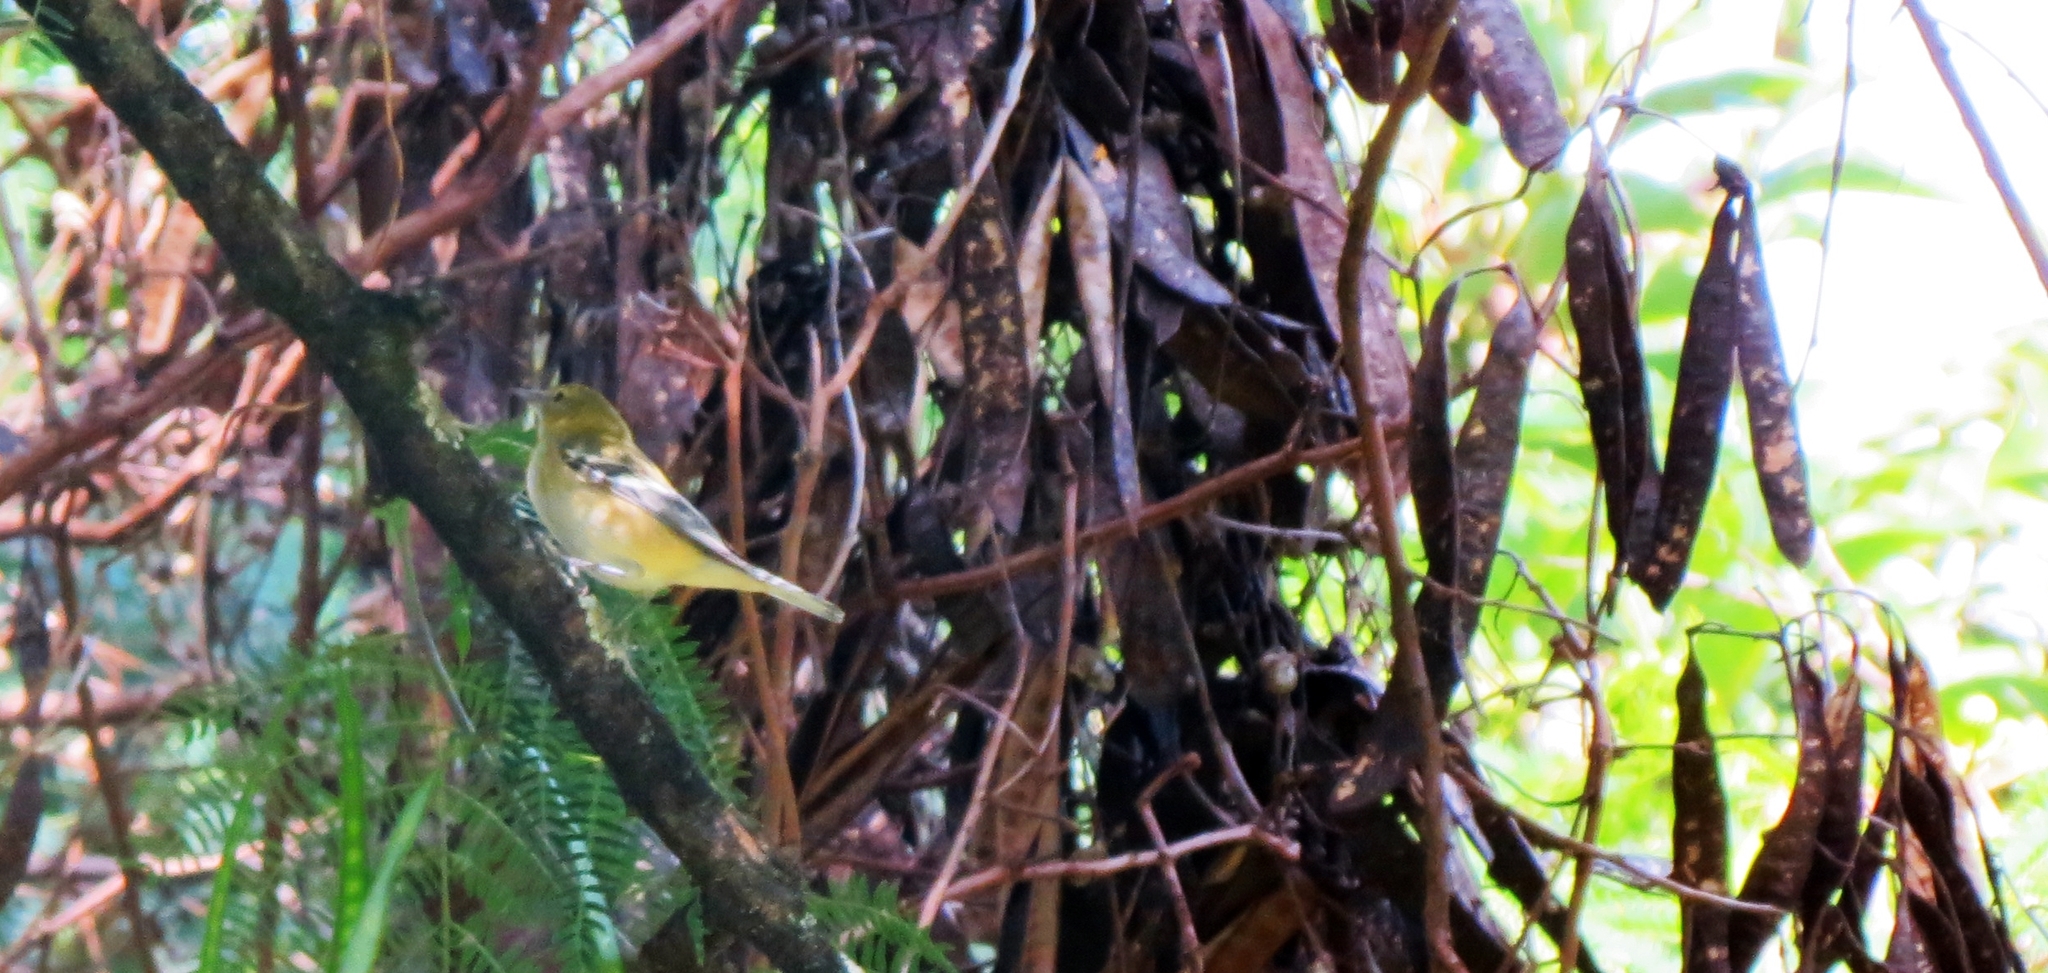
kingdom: Animalia
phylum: Chordata
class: Aves
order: Passeriformes
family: Parulidae
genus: Setophaga
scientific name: Setophaga castanea
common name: Bay-breasted warbler
